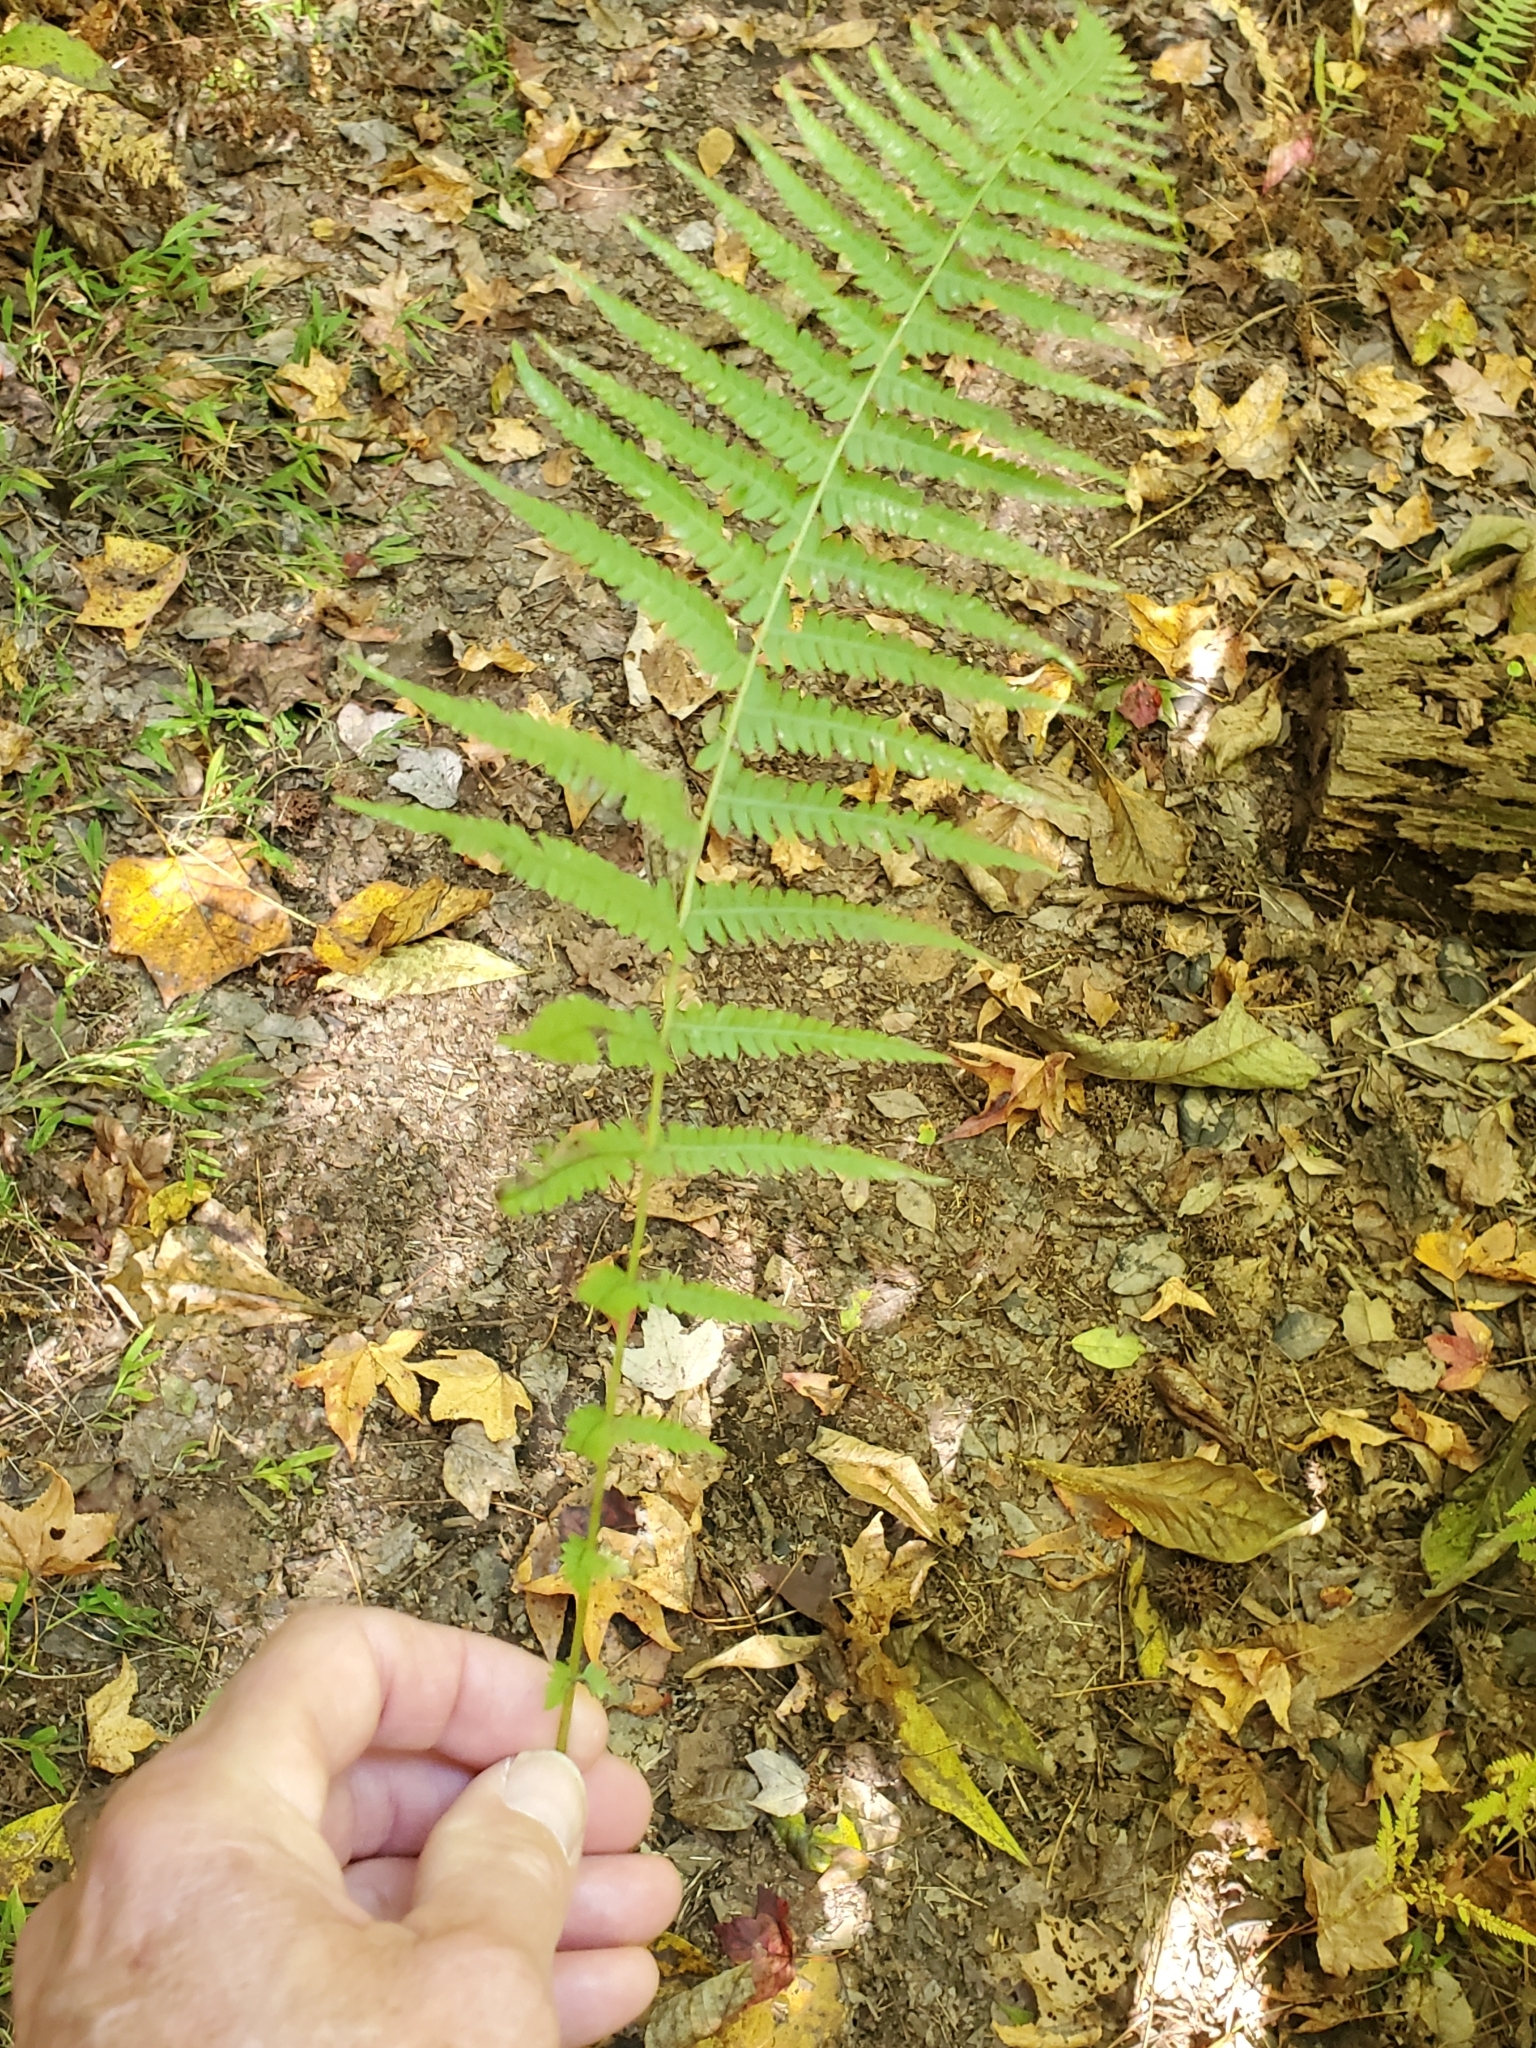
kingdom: Plantae
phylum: Tracheophyta
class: Polypodiopsida
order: Polypodiales
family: Thelypteridaceae
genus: Amauropelta
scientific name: Amauropelta noveboracensis
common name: New york fern
